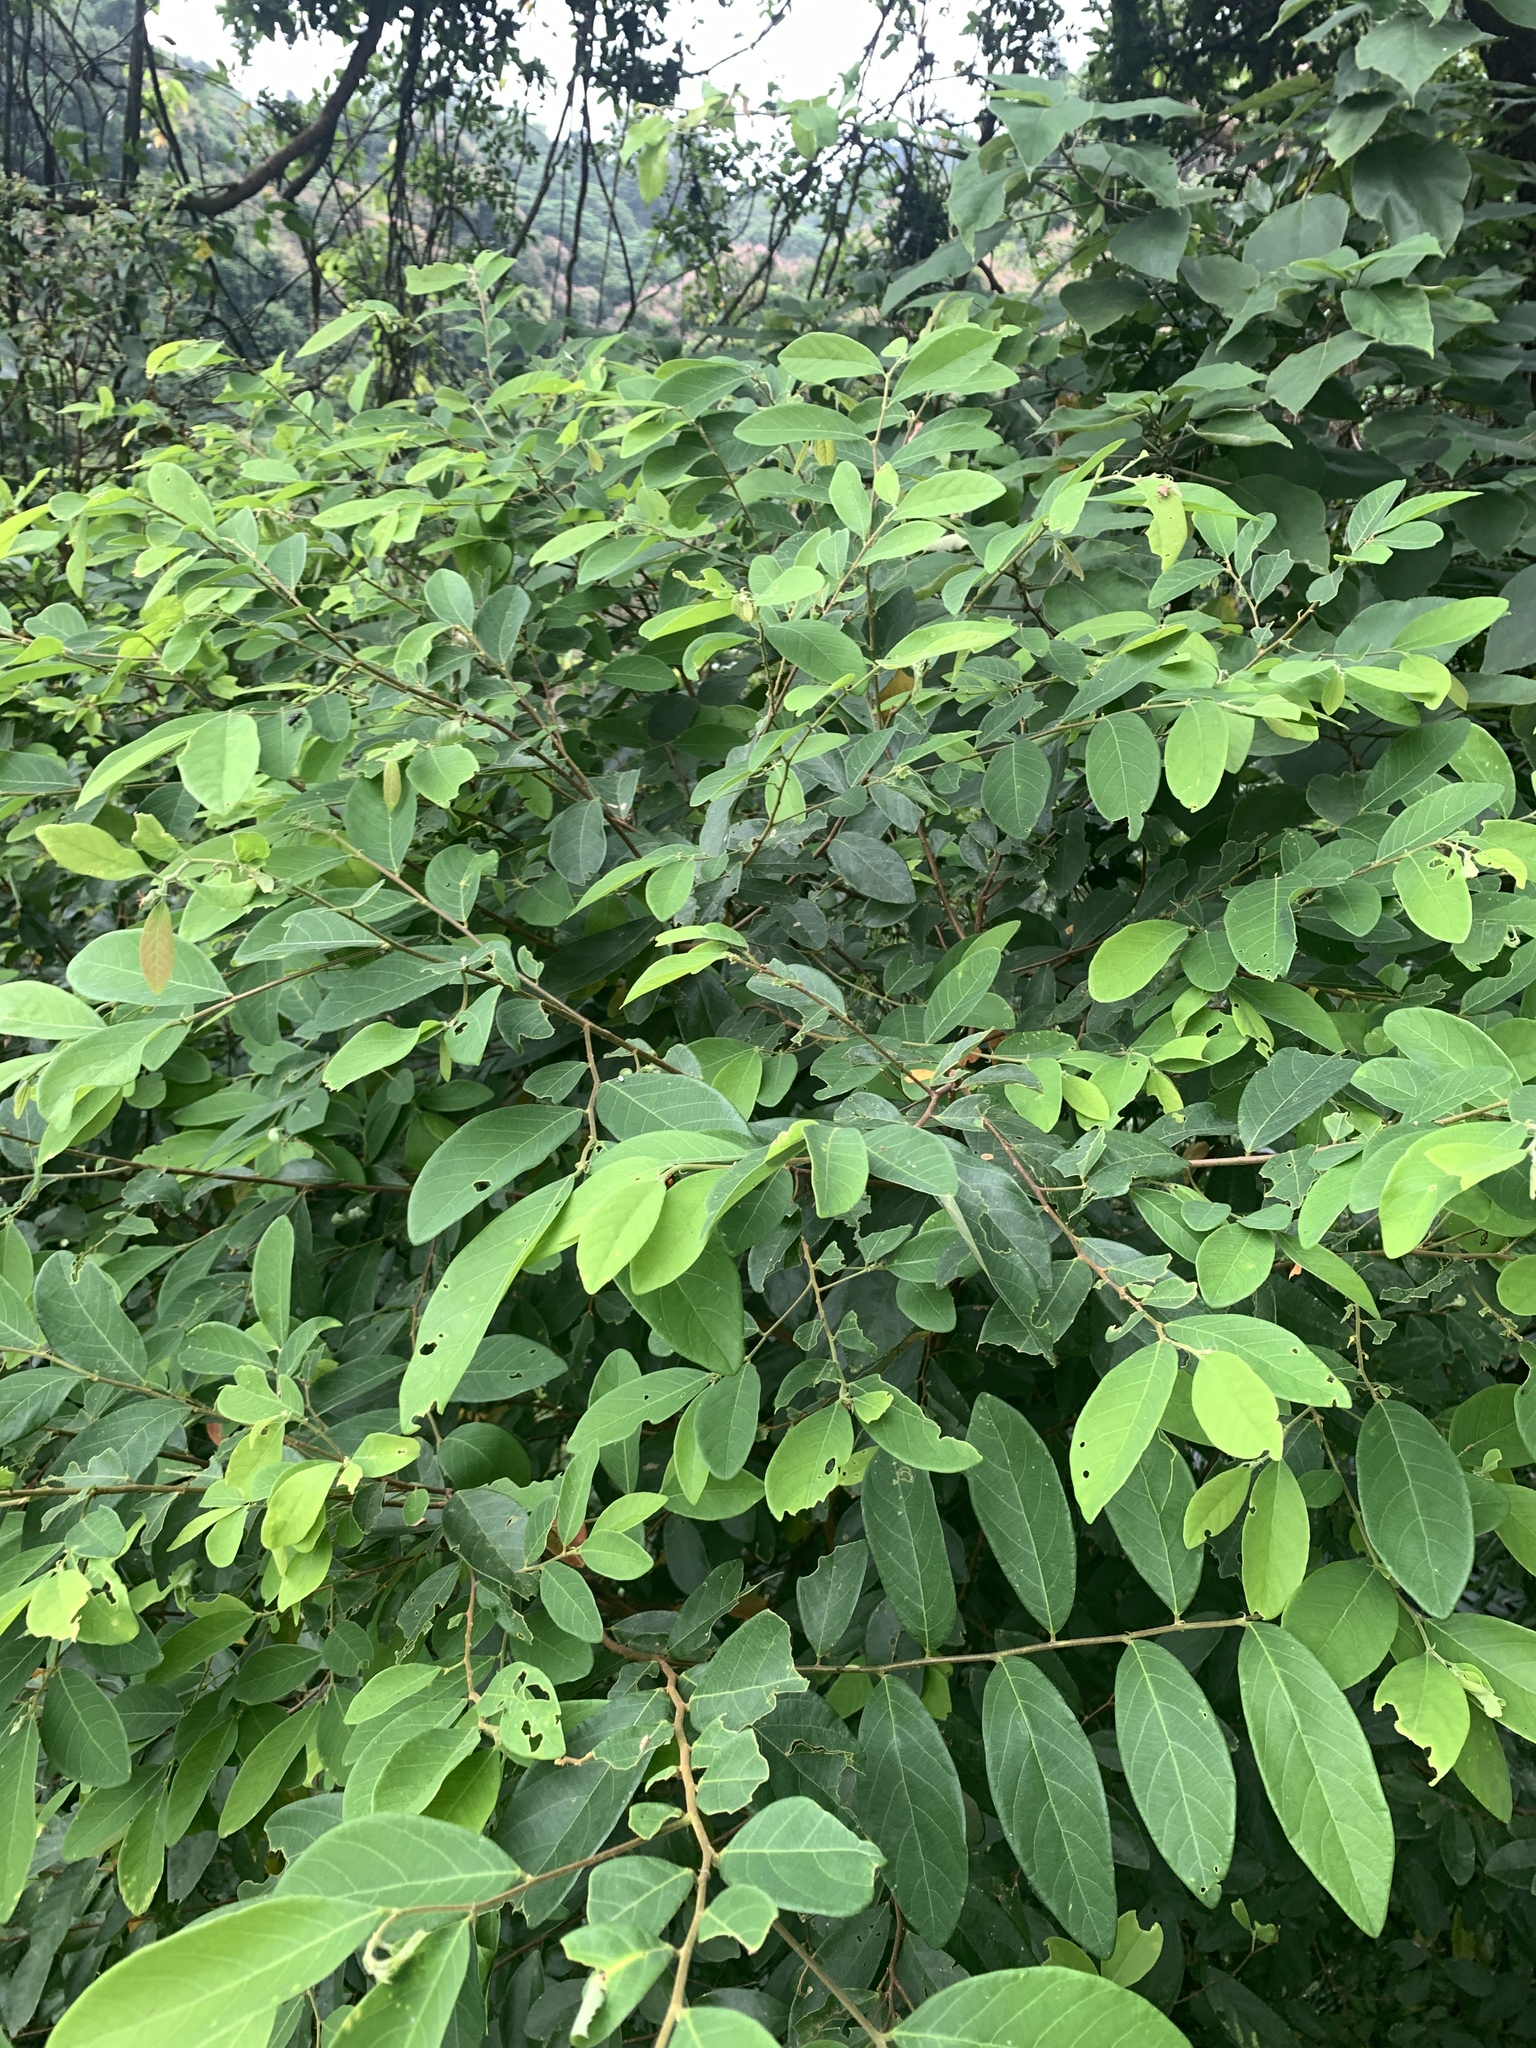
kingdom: Plantae
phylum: Tracheophyta
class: Magnoliopsida
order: Malpighiales
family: Phyllanthaceae
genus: Bridelia
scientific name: Bridelia tomentosa
